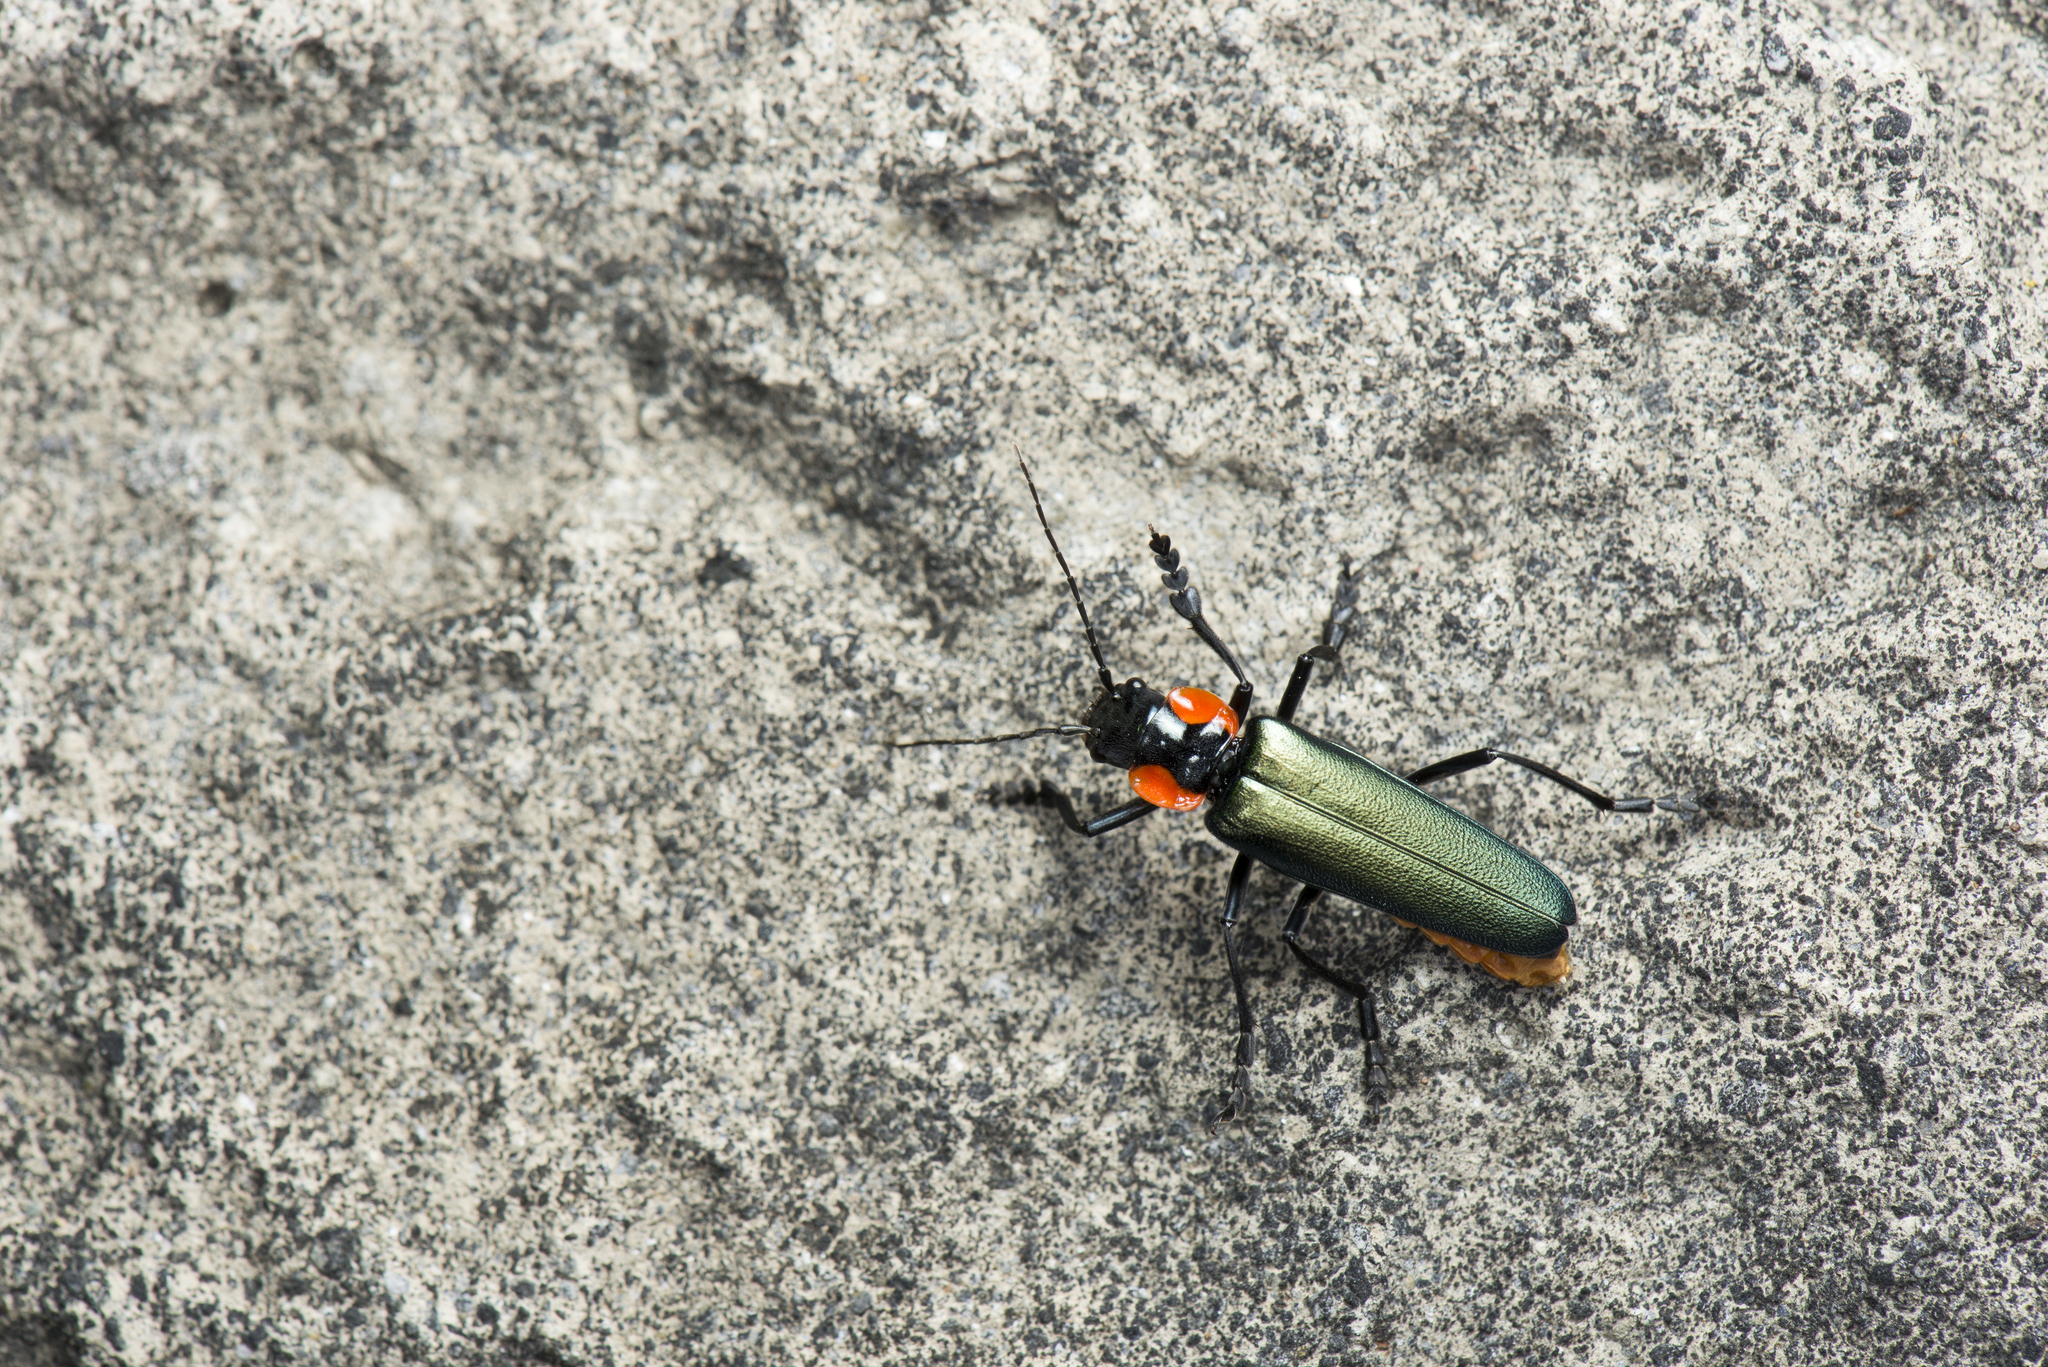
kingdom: Animalia
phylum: Arthropoda
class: Insecta
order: Coleoptera
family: Cantharidae
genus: Themus
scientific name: Themus explanaticollis
